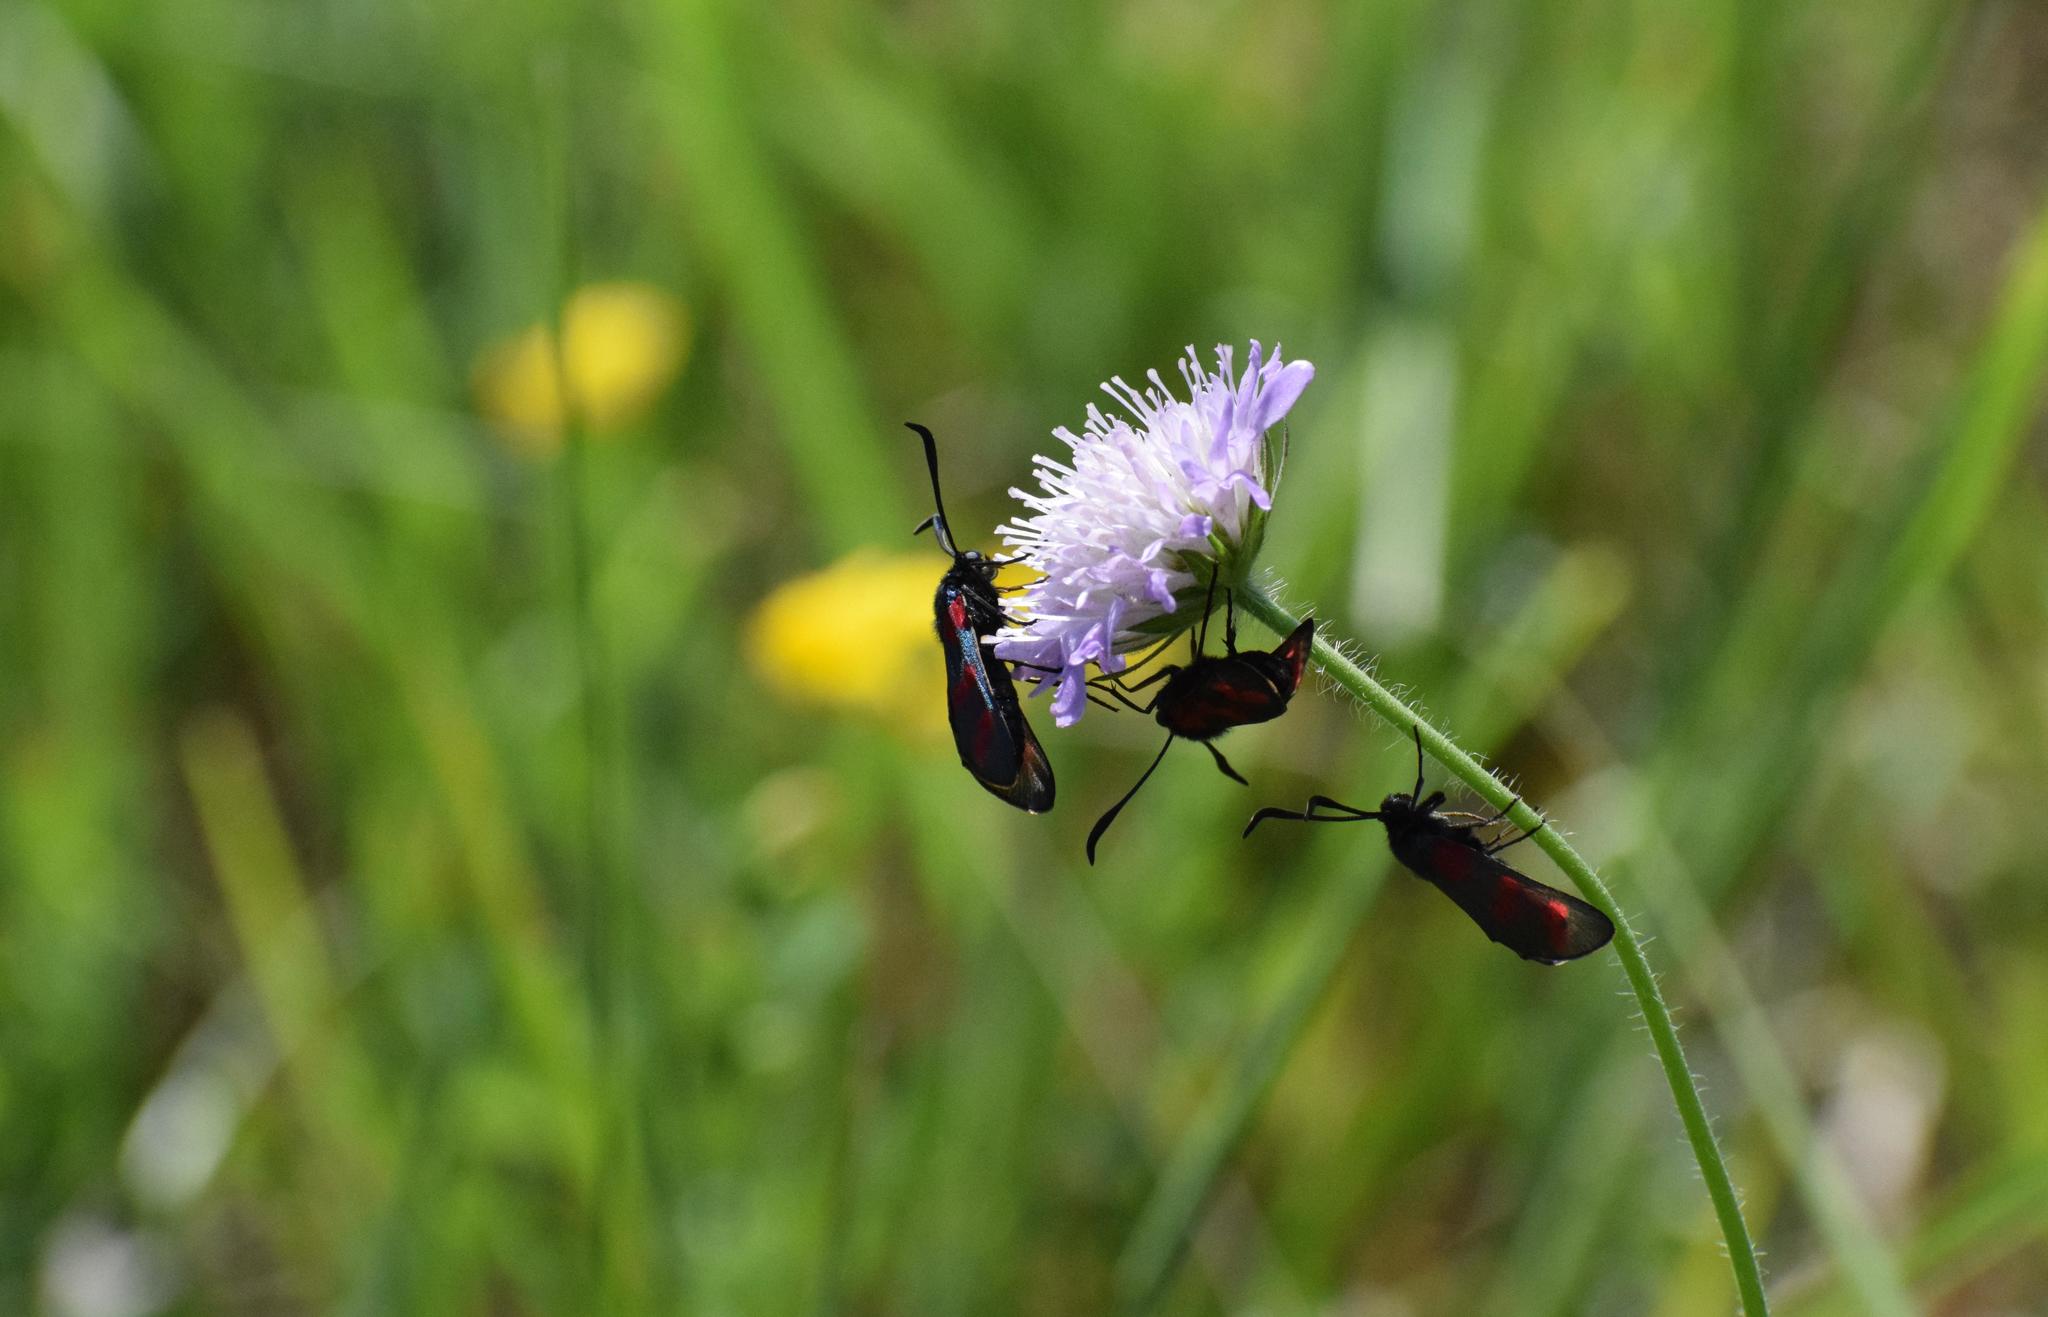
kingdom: Animalia
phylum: Arthropoda
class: Insecta
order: Lepidoptera
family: Zygaenidae
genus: Zygaena
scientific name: Zygaena filipendulae
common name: Six-spot burnet
